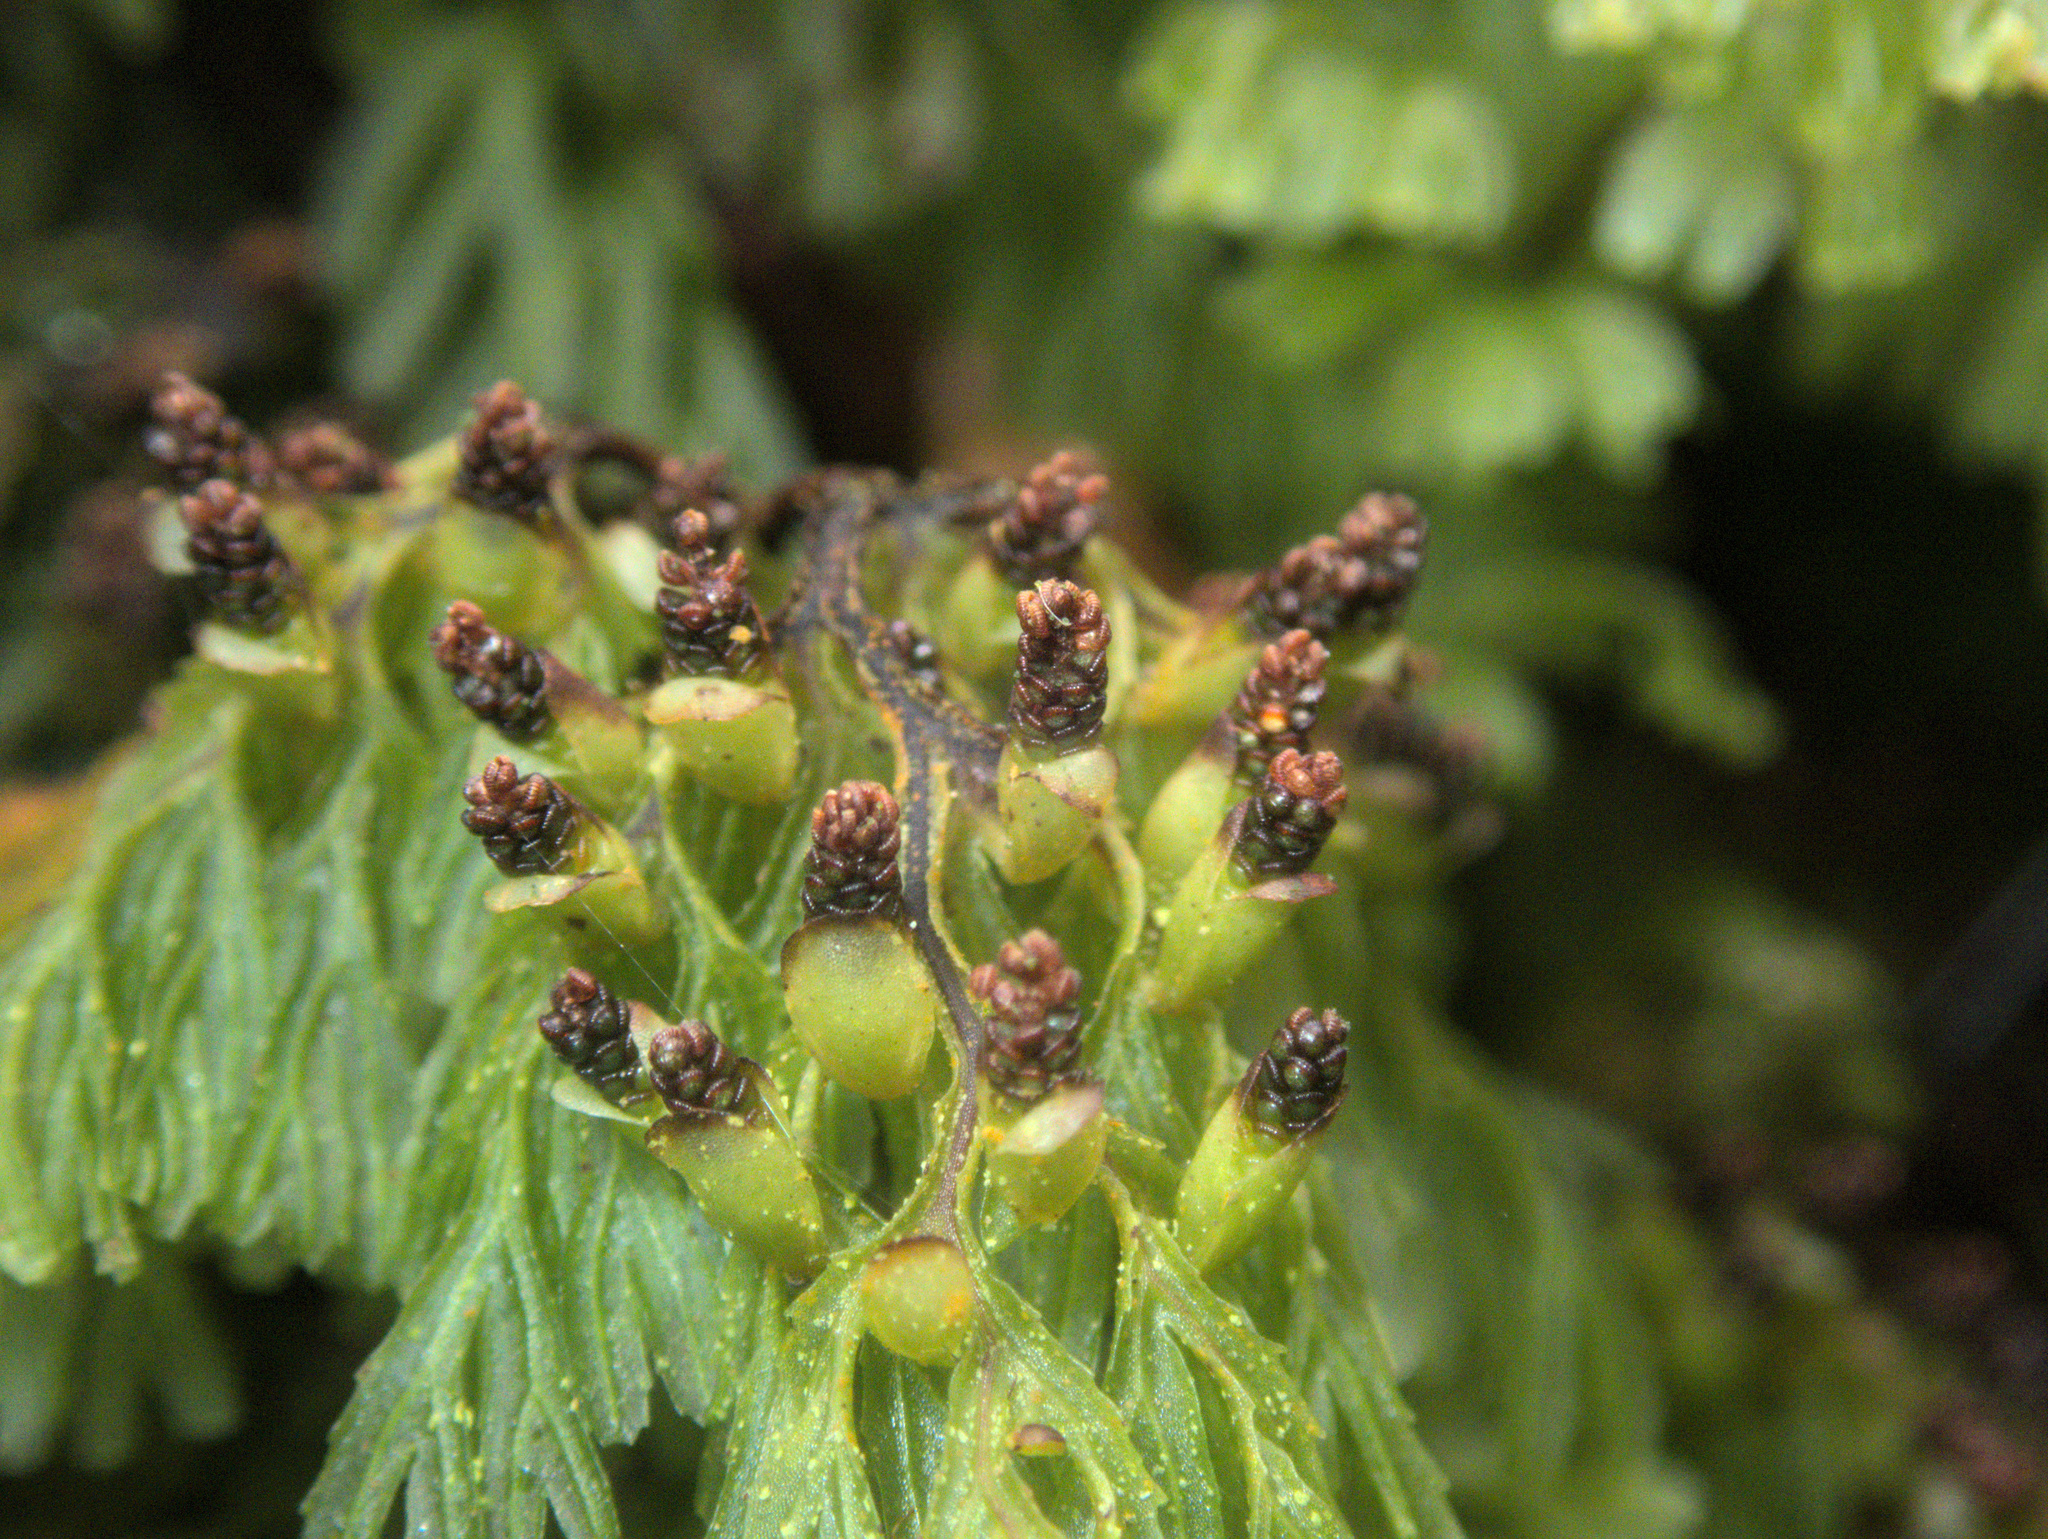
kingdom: Plantae
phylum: Tracheophyta
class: Polypodiopsida
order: Hymenophyllales
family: Hymenophyllaceae
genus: Hymenophyllum
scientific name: Hymenophyllum multifidum
